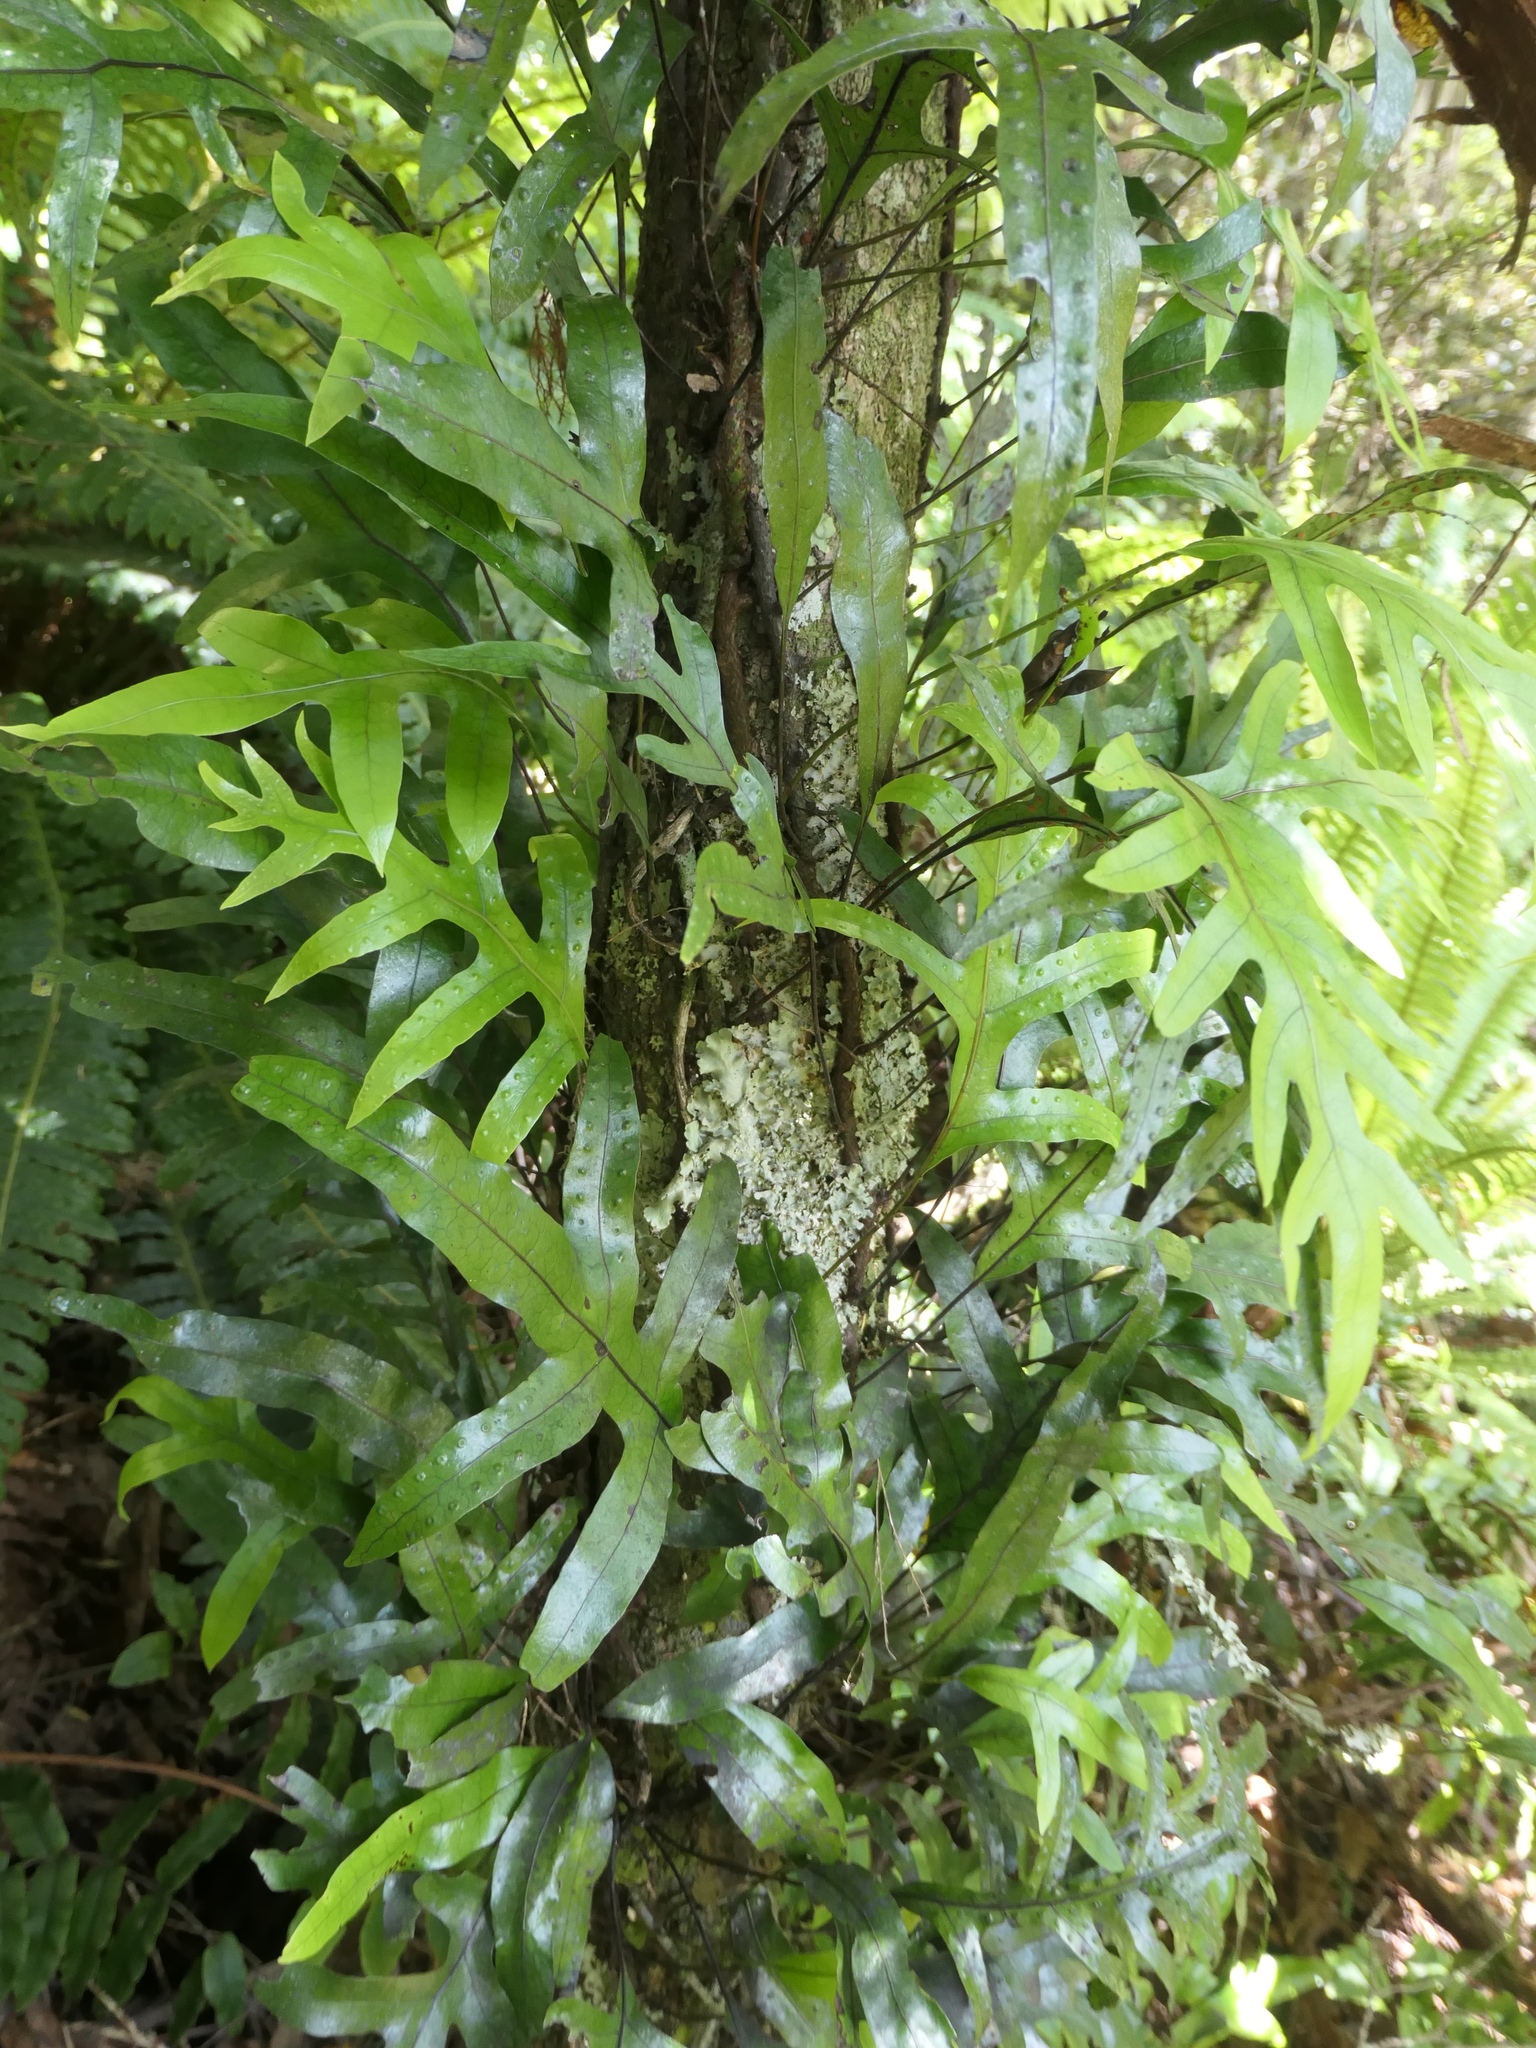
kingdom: Plantae
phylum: Tracheophyta
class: Polypodiopsida
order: Polypodiales
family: Polypodiaceae
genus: Lecanopteris
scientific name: Lecanopteris pustulata
